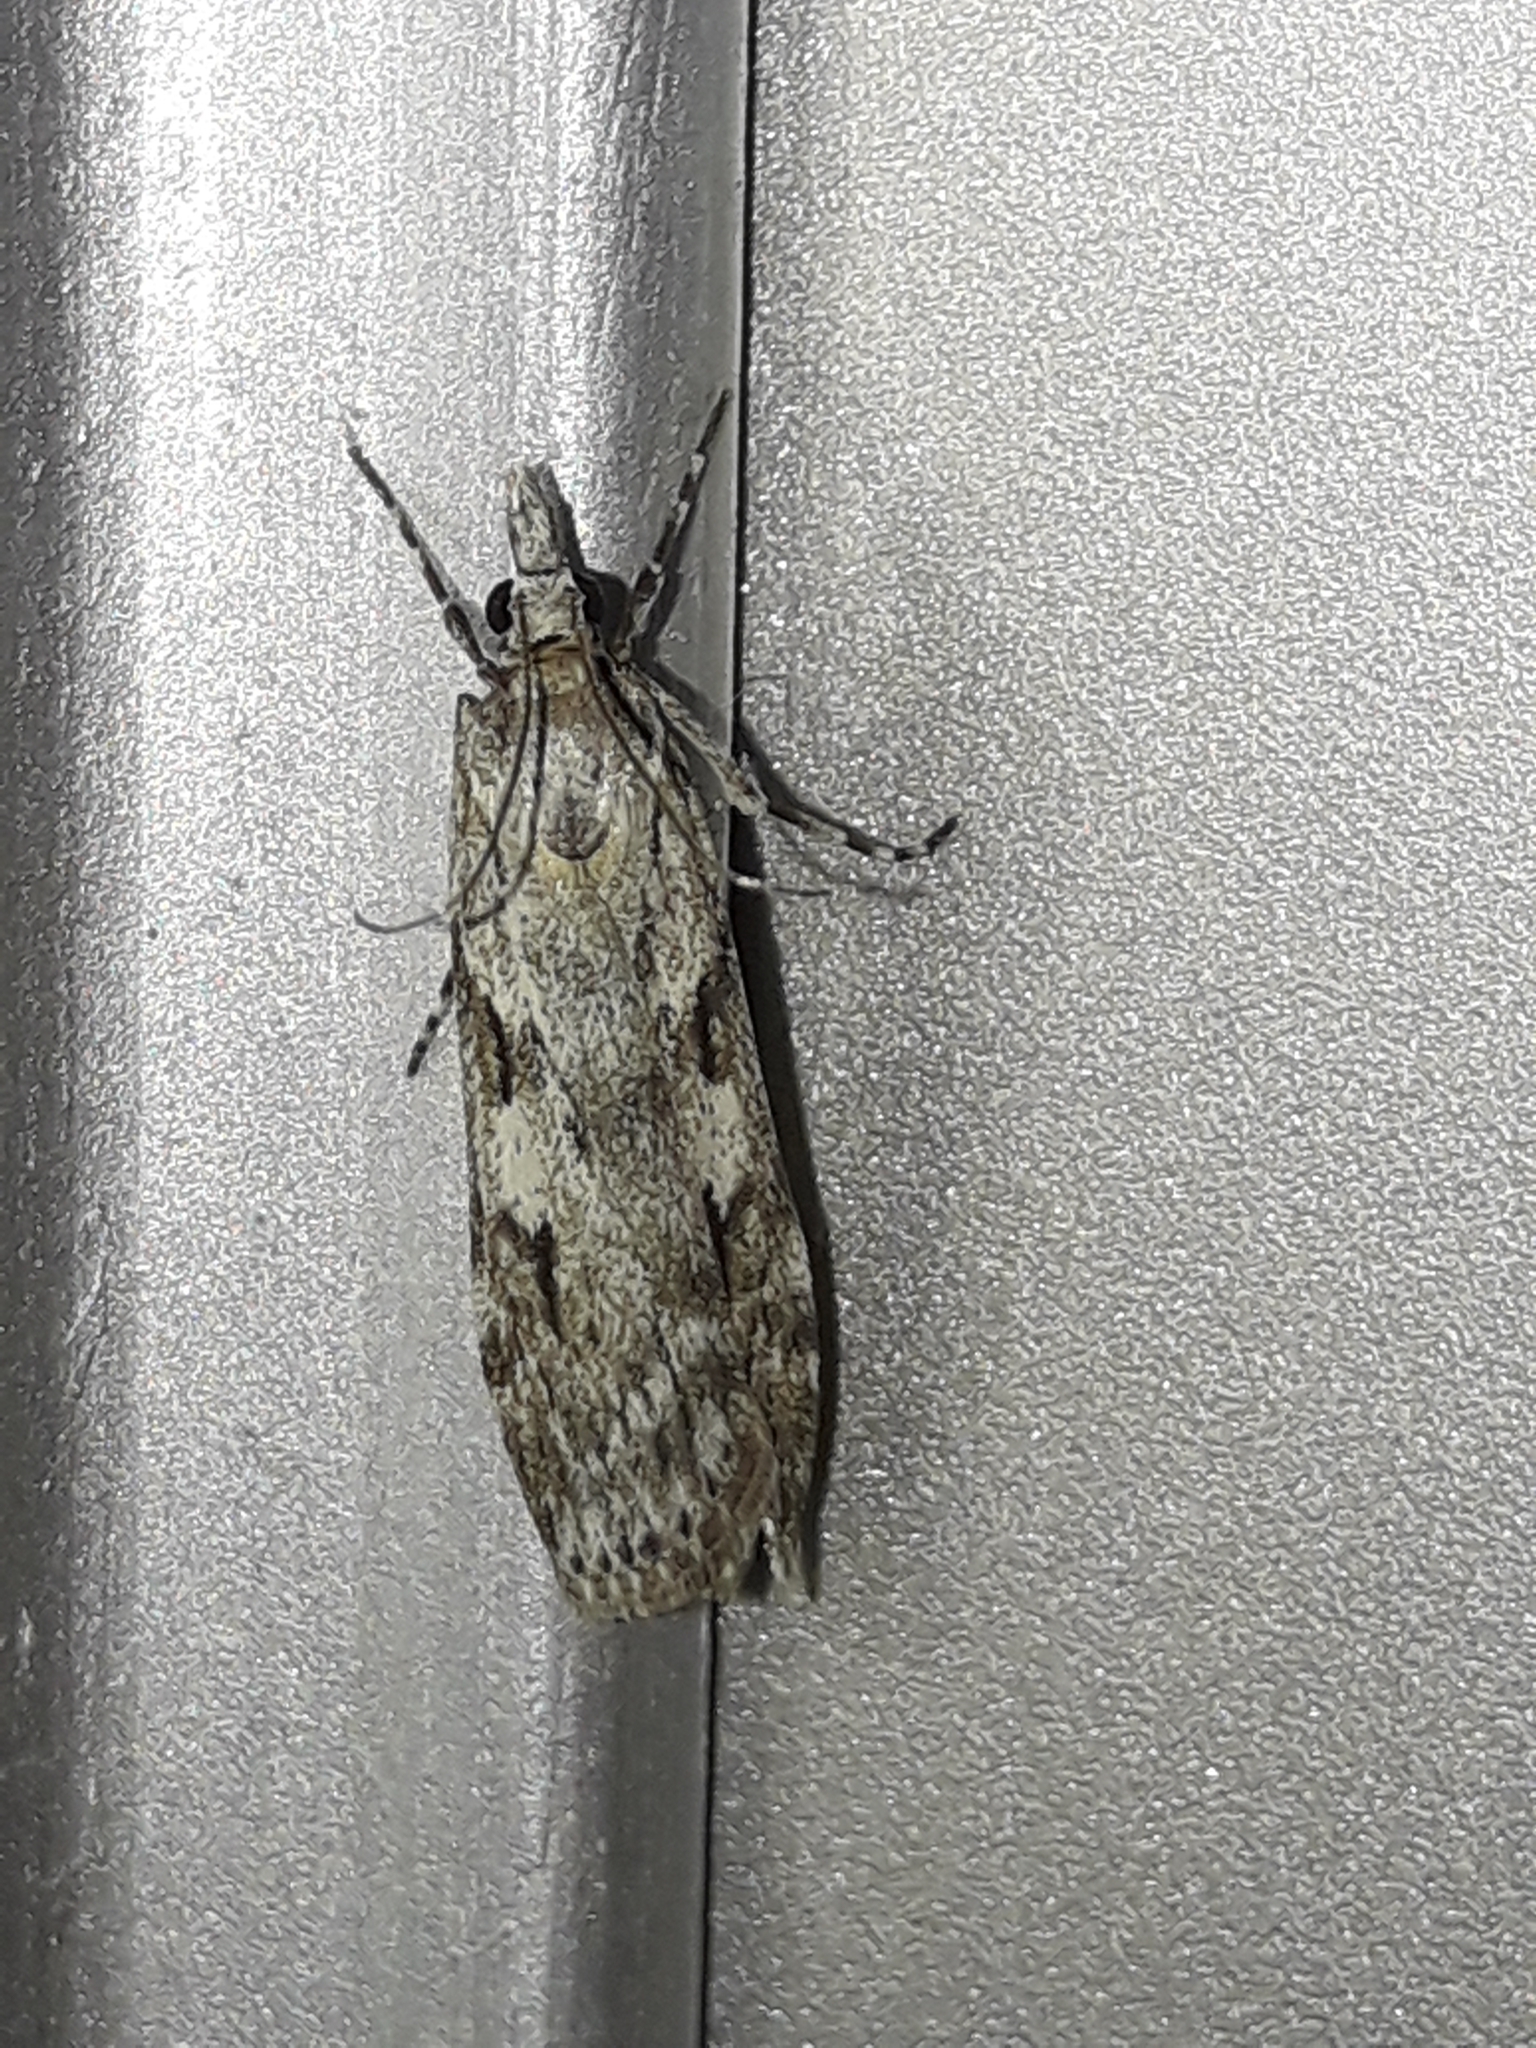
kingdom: Animalia
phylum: Arthropoda
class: Insecta
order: Lepidoptera
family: Crambidae
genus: Scoparia
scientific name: Scoparia halopis
